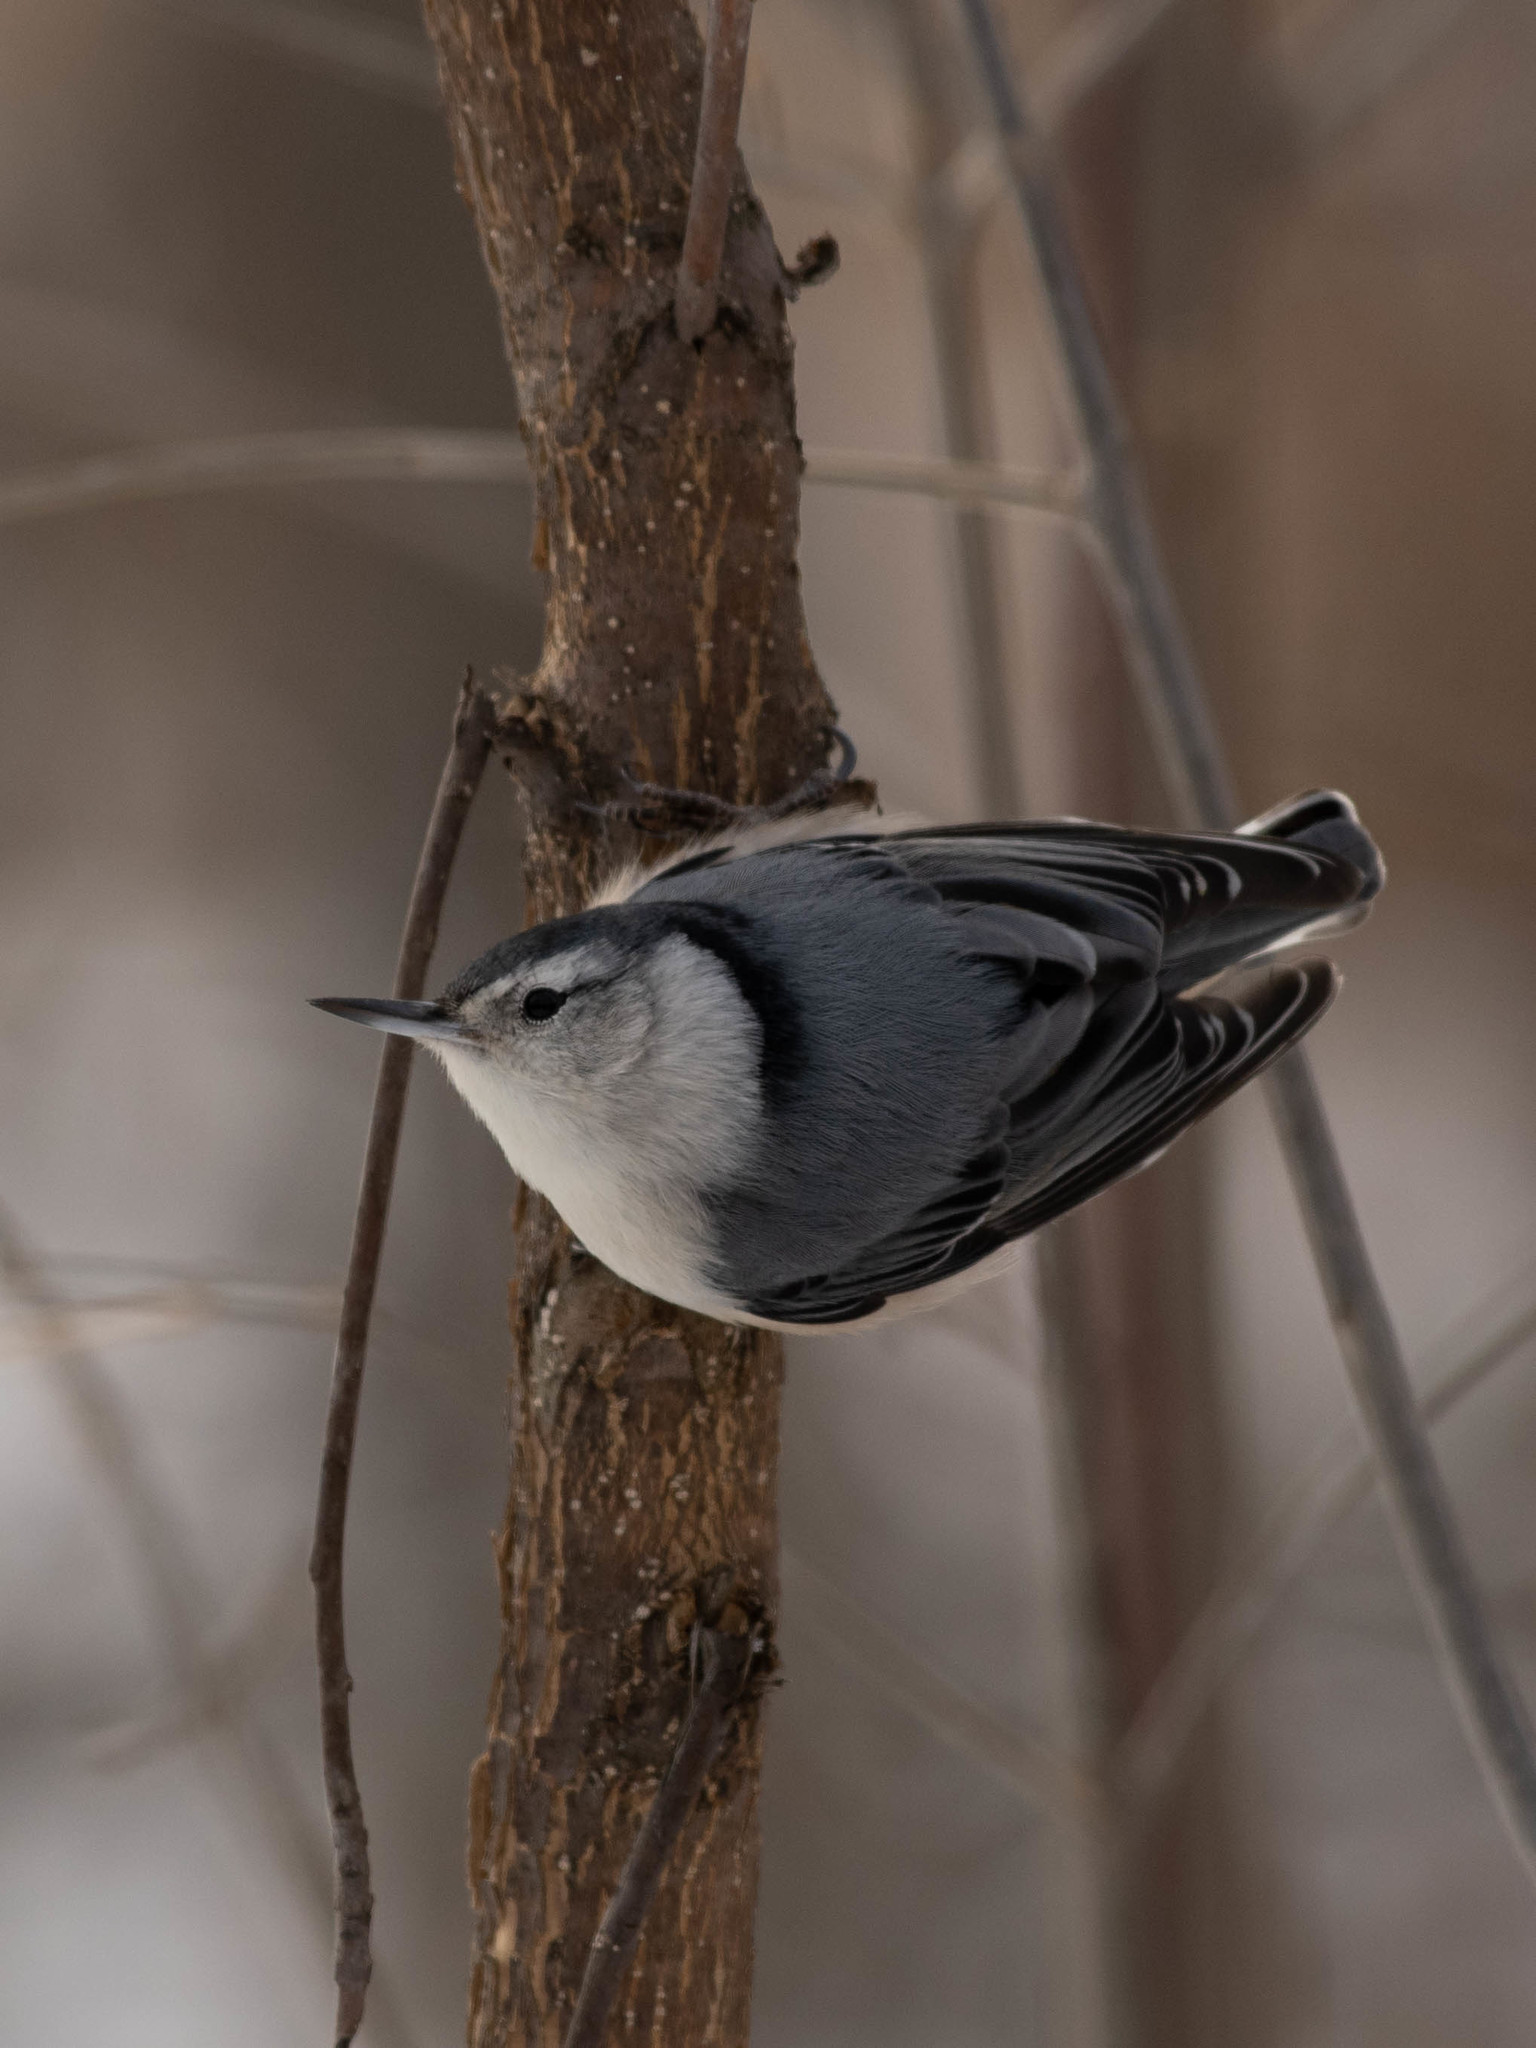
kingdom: Animalia
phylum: Chordata
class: Aves
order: Passeriformes
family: Sittidae
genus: Sitta
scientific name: Sitta carolinensis
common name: White-breasted nuthatch
